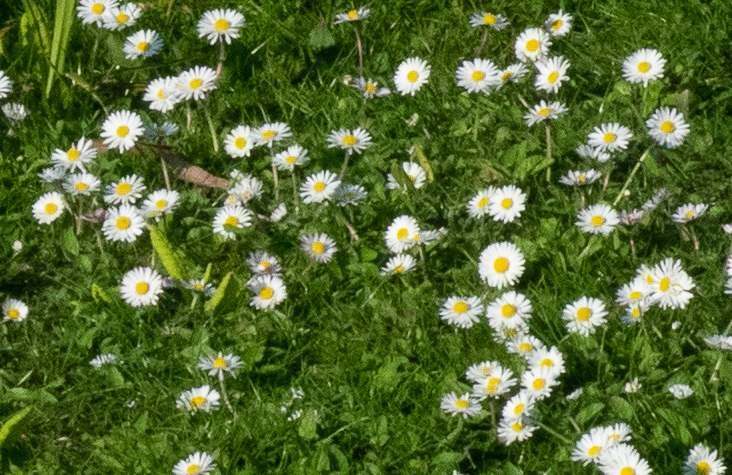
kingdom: Plantae
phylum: Tracheophyta
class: Magnoliopsida
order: Asterales
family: Asteraceae
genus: Bellis
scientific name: Bellis perennis
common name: Lawndaisy
